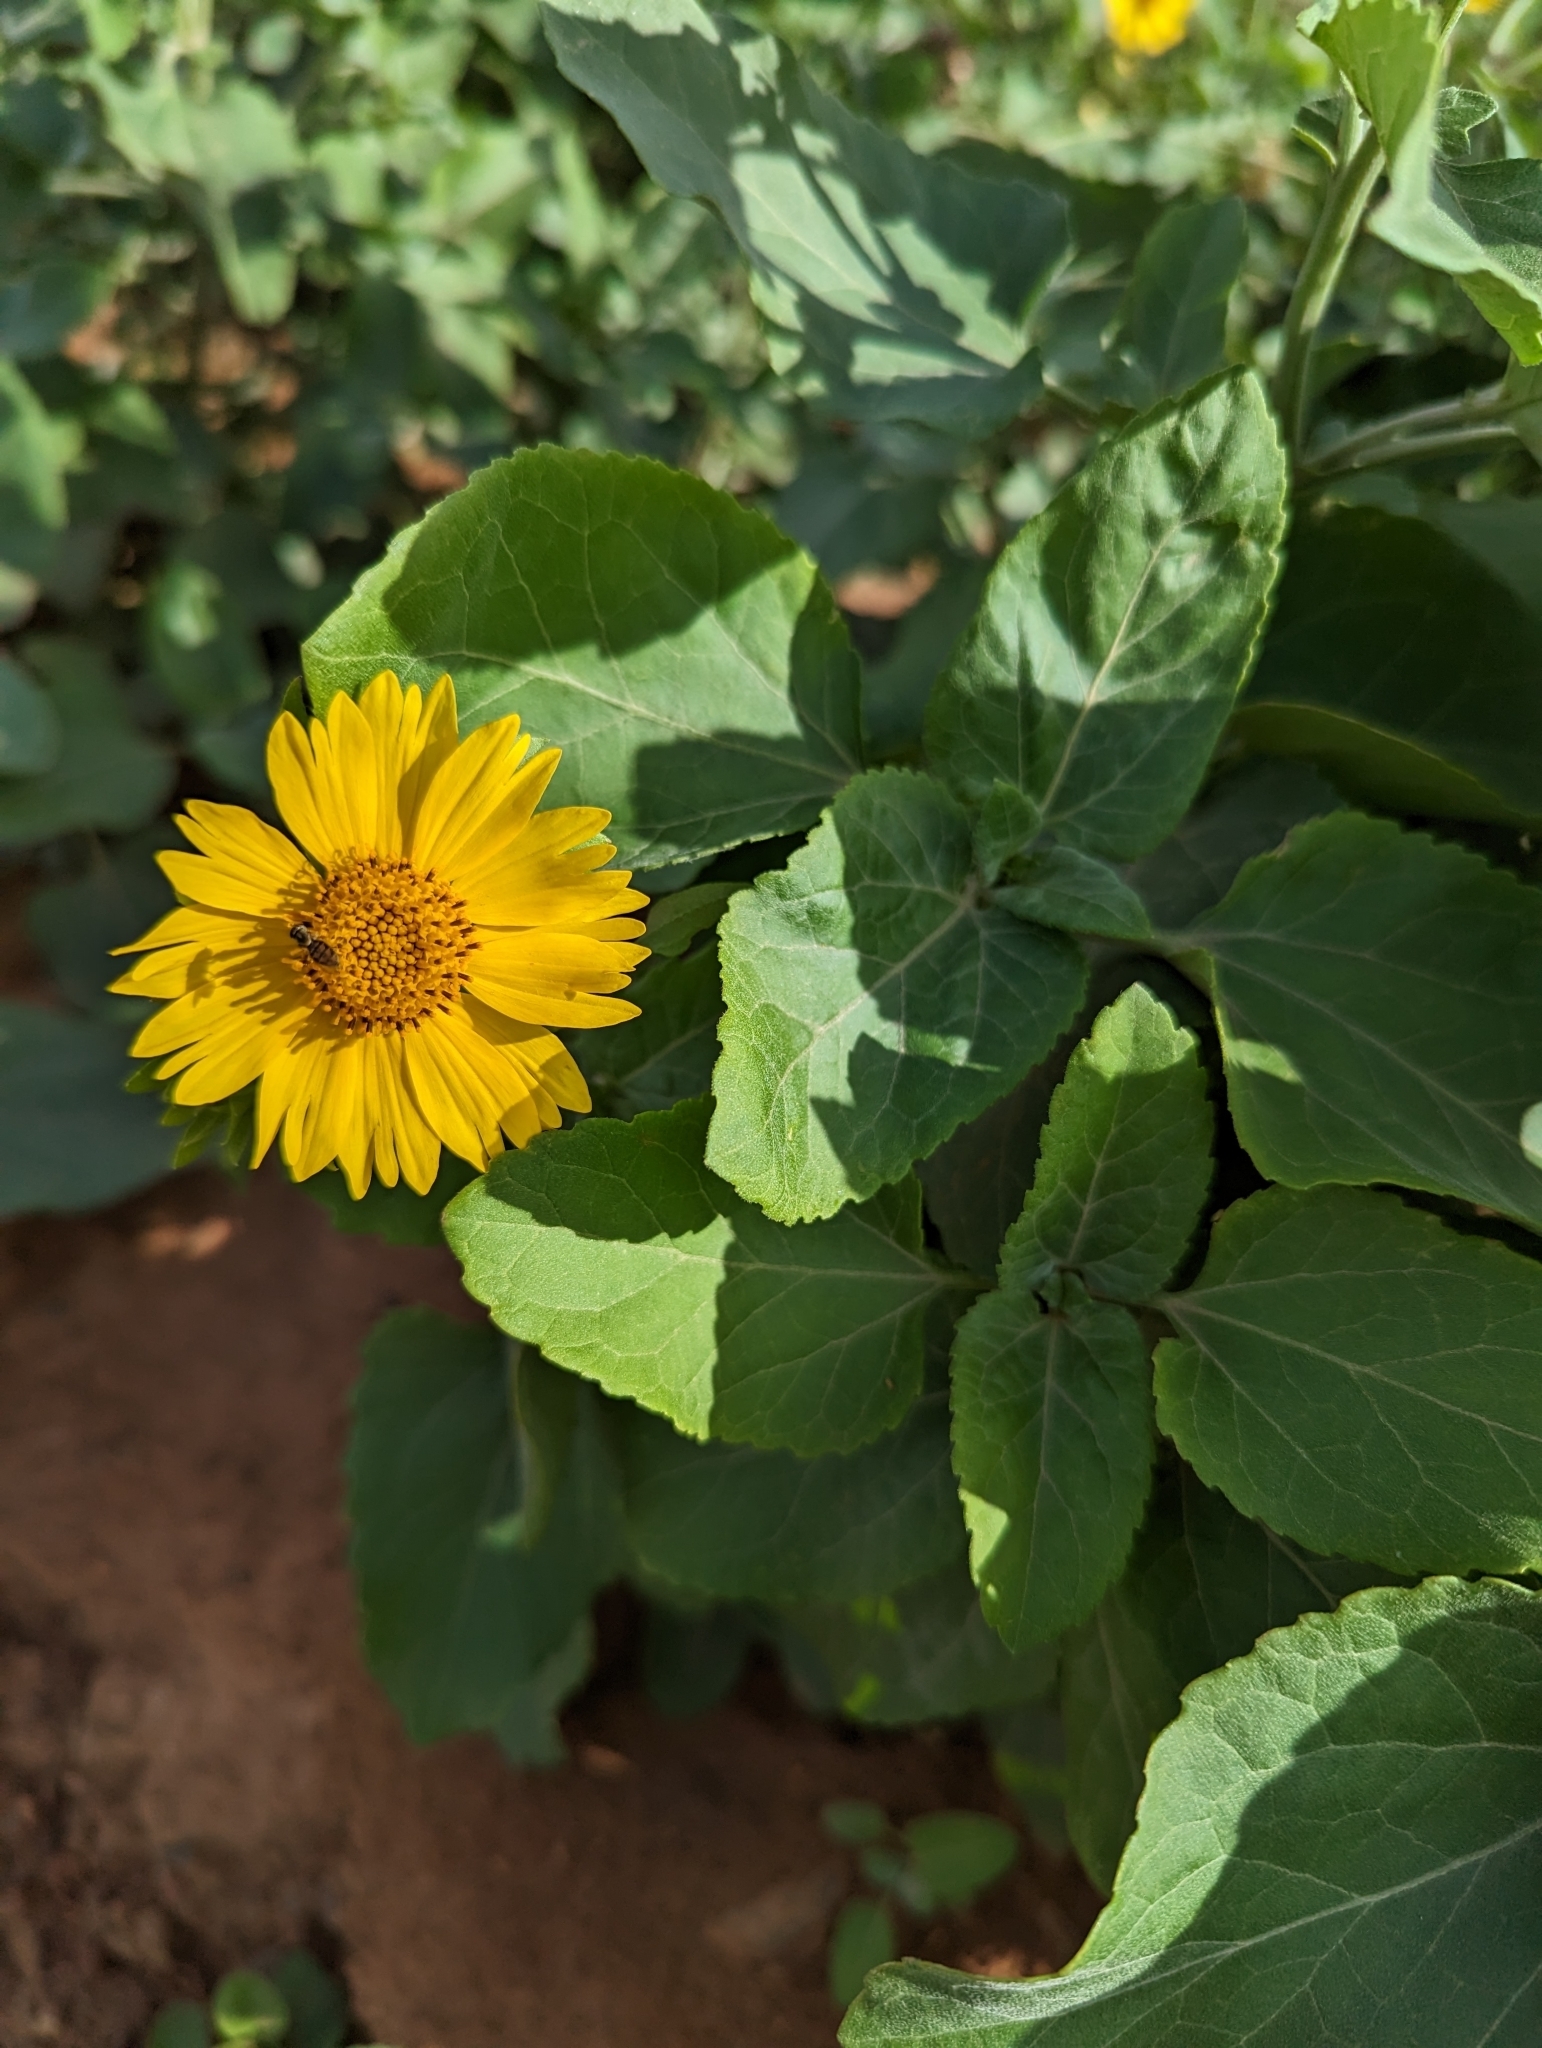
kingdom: Plantae
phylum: Tracheophyta
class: Magnoliopsida
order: Asterales
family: Asteraceae
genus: Verbesina
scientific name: Verbesina encelioides
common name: Golden crownbeard
